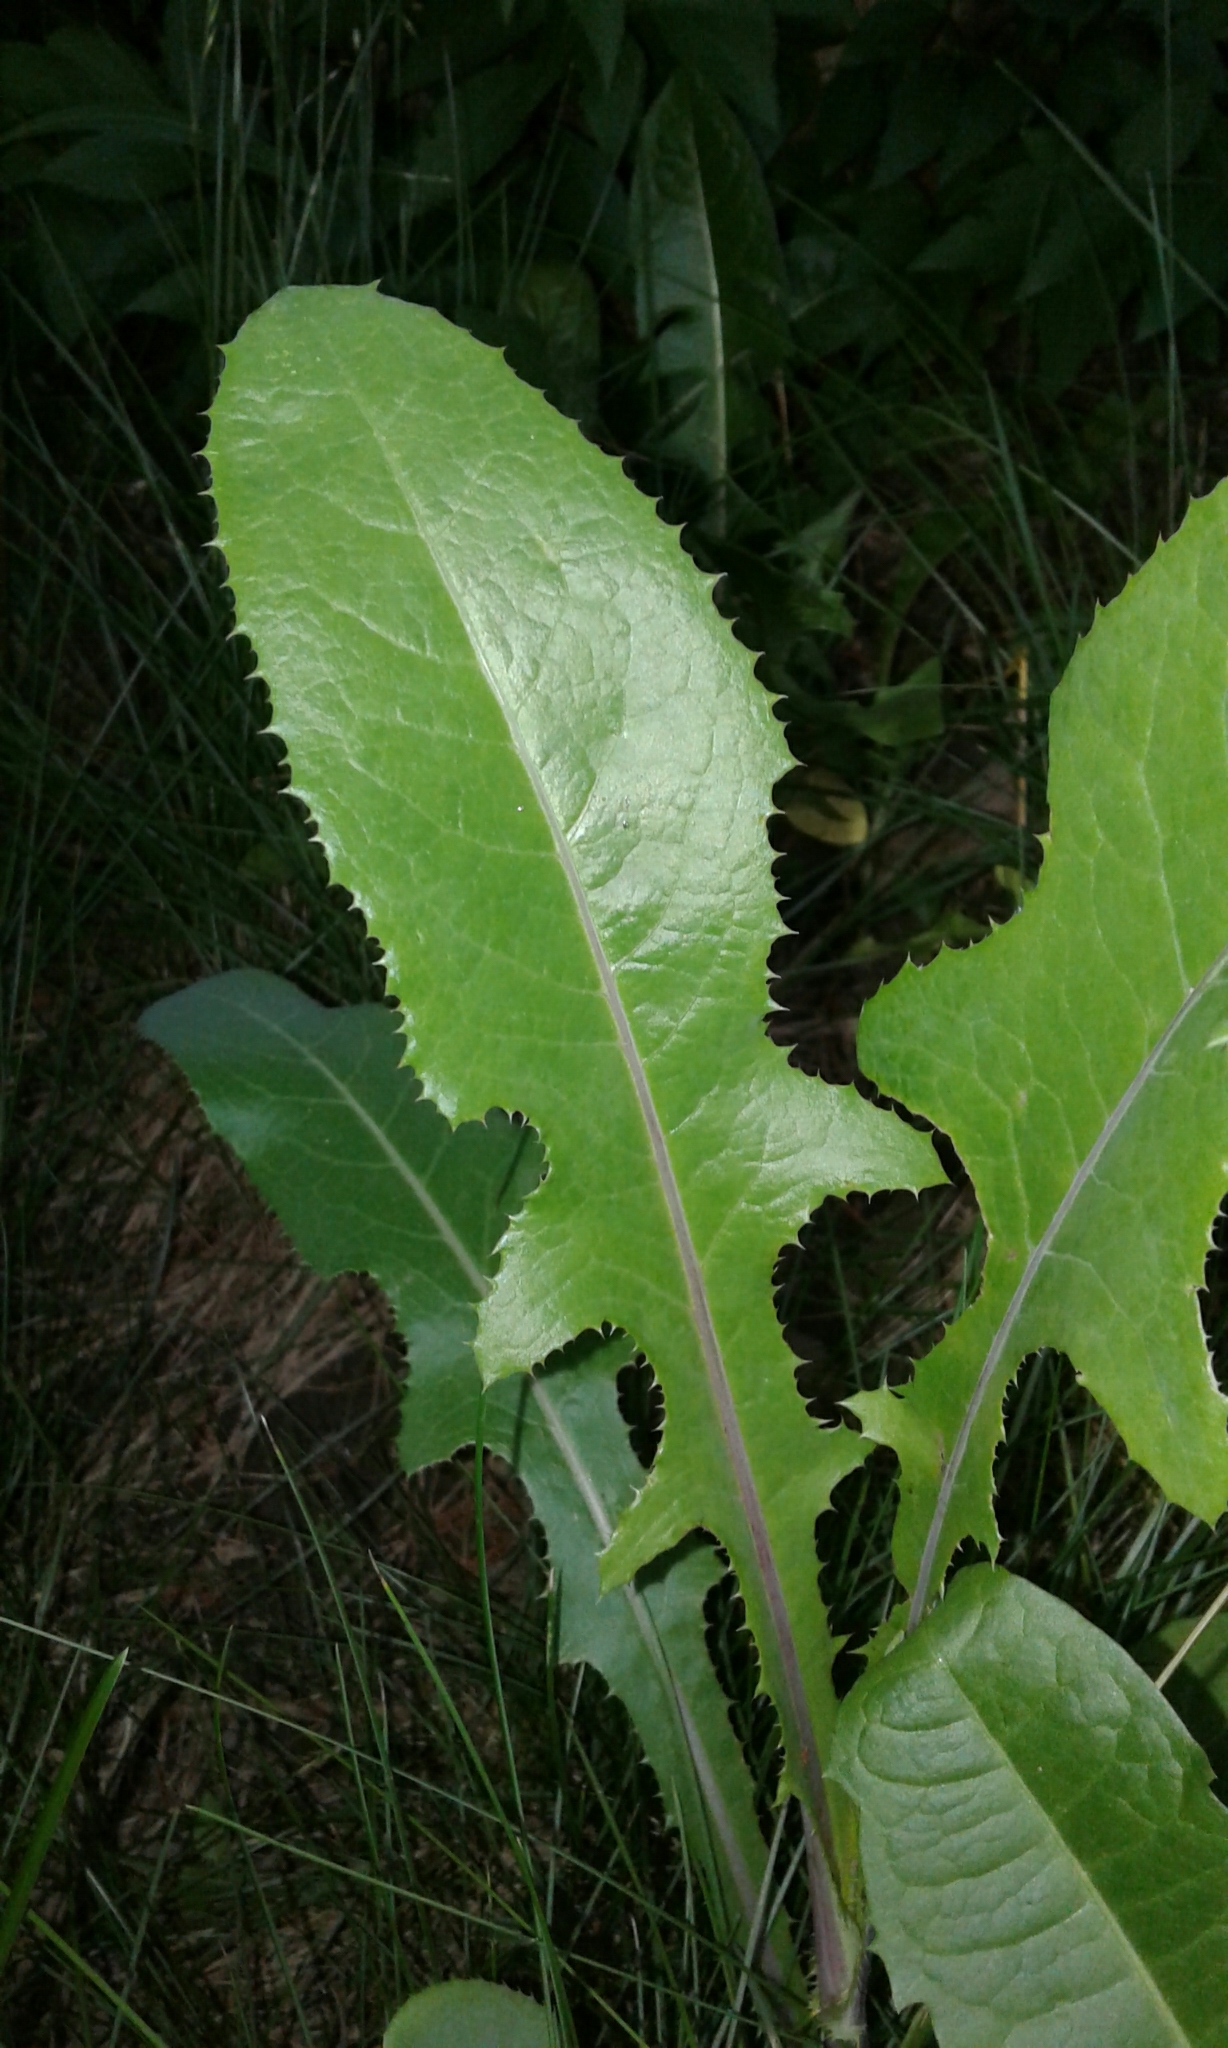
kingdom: Plantae
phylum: Tracheophyta
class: Magnoliopsida
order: Asterales
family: Asteraceae
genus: Sonchus
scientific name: Sonchus arvensis
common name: Perennial sow-thistle
